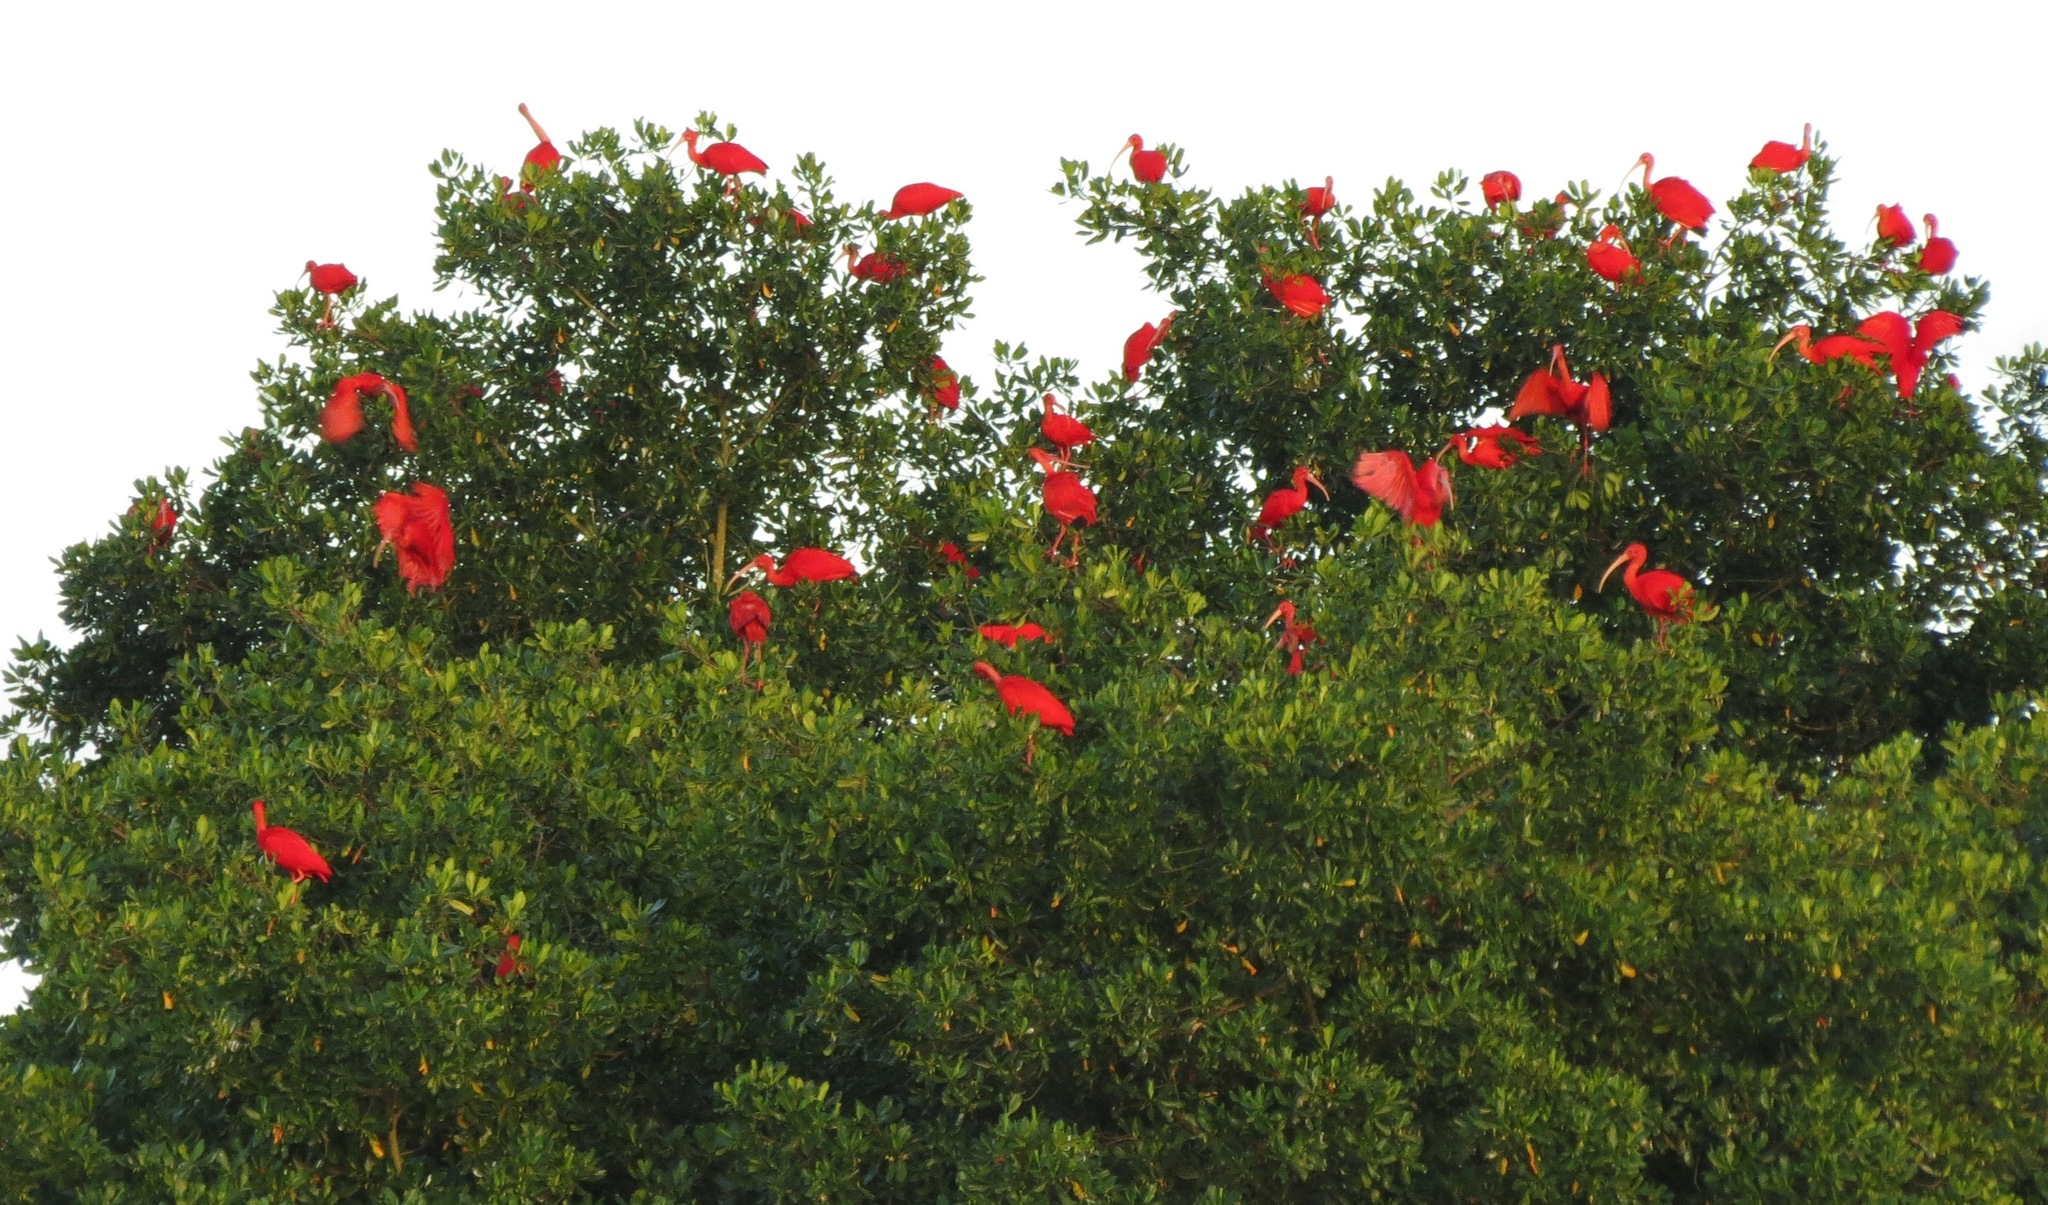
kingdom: Animalia
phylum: Chordata
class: Aves
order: Pelecaniformes
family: Threskiornithidae
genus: Eudocimus
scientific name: Eudocimus ruber
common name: Scarlet ibis
